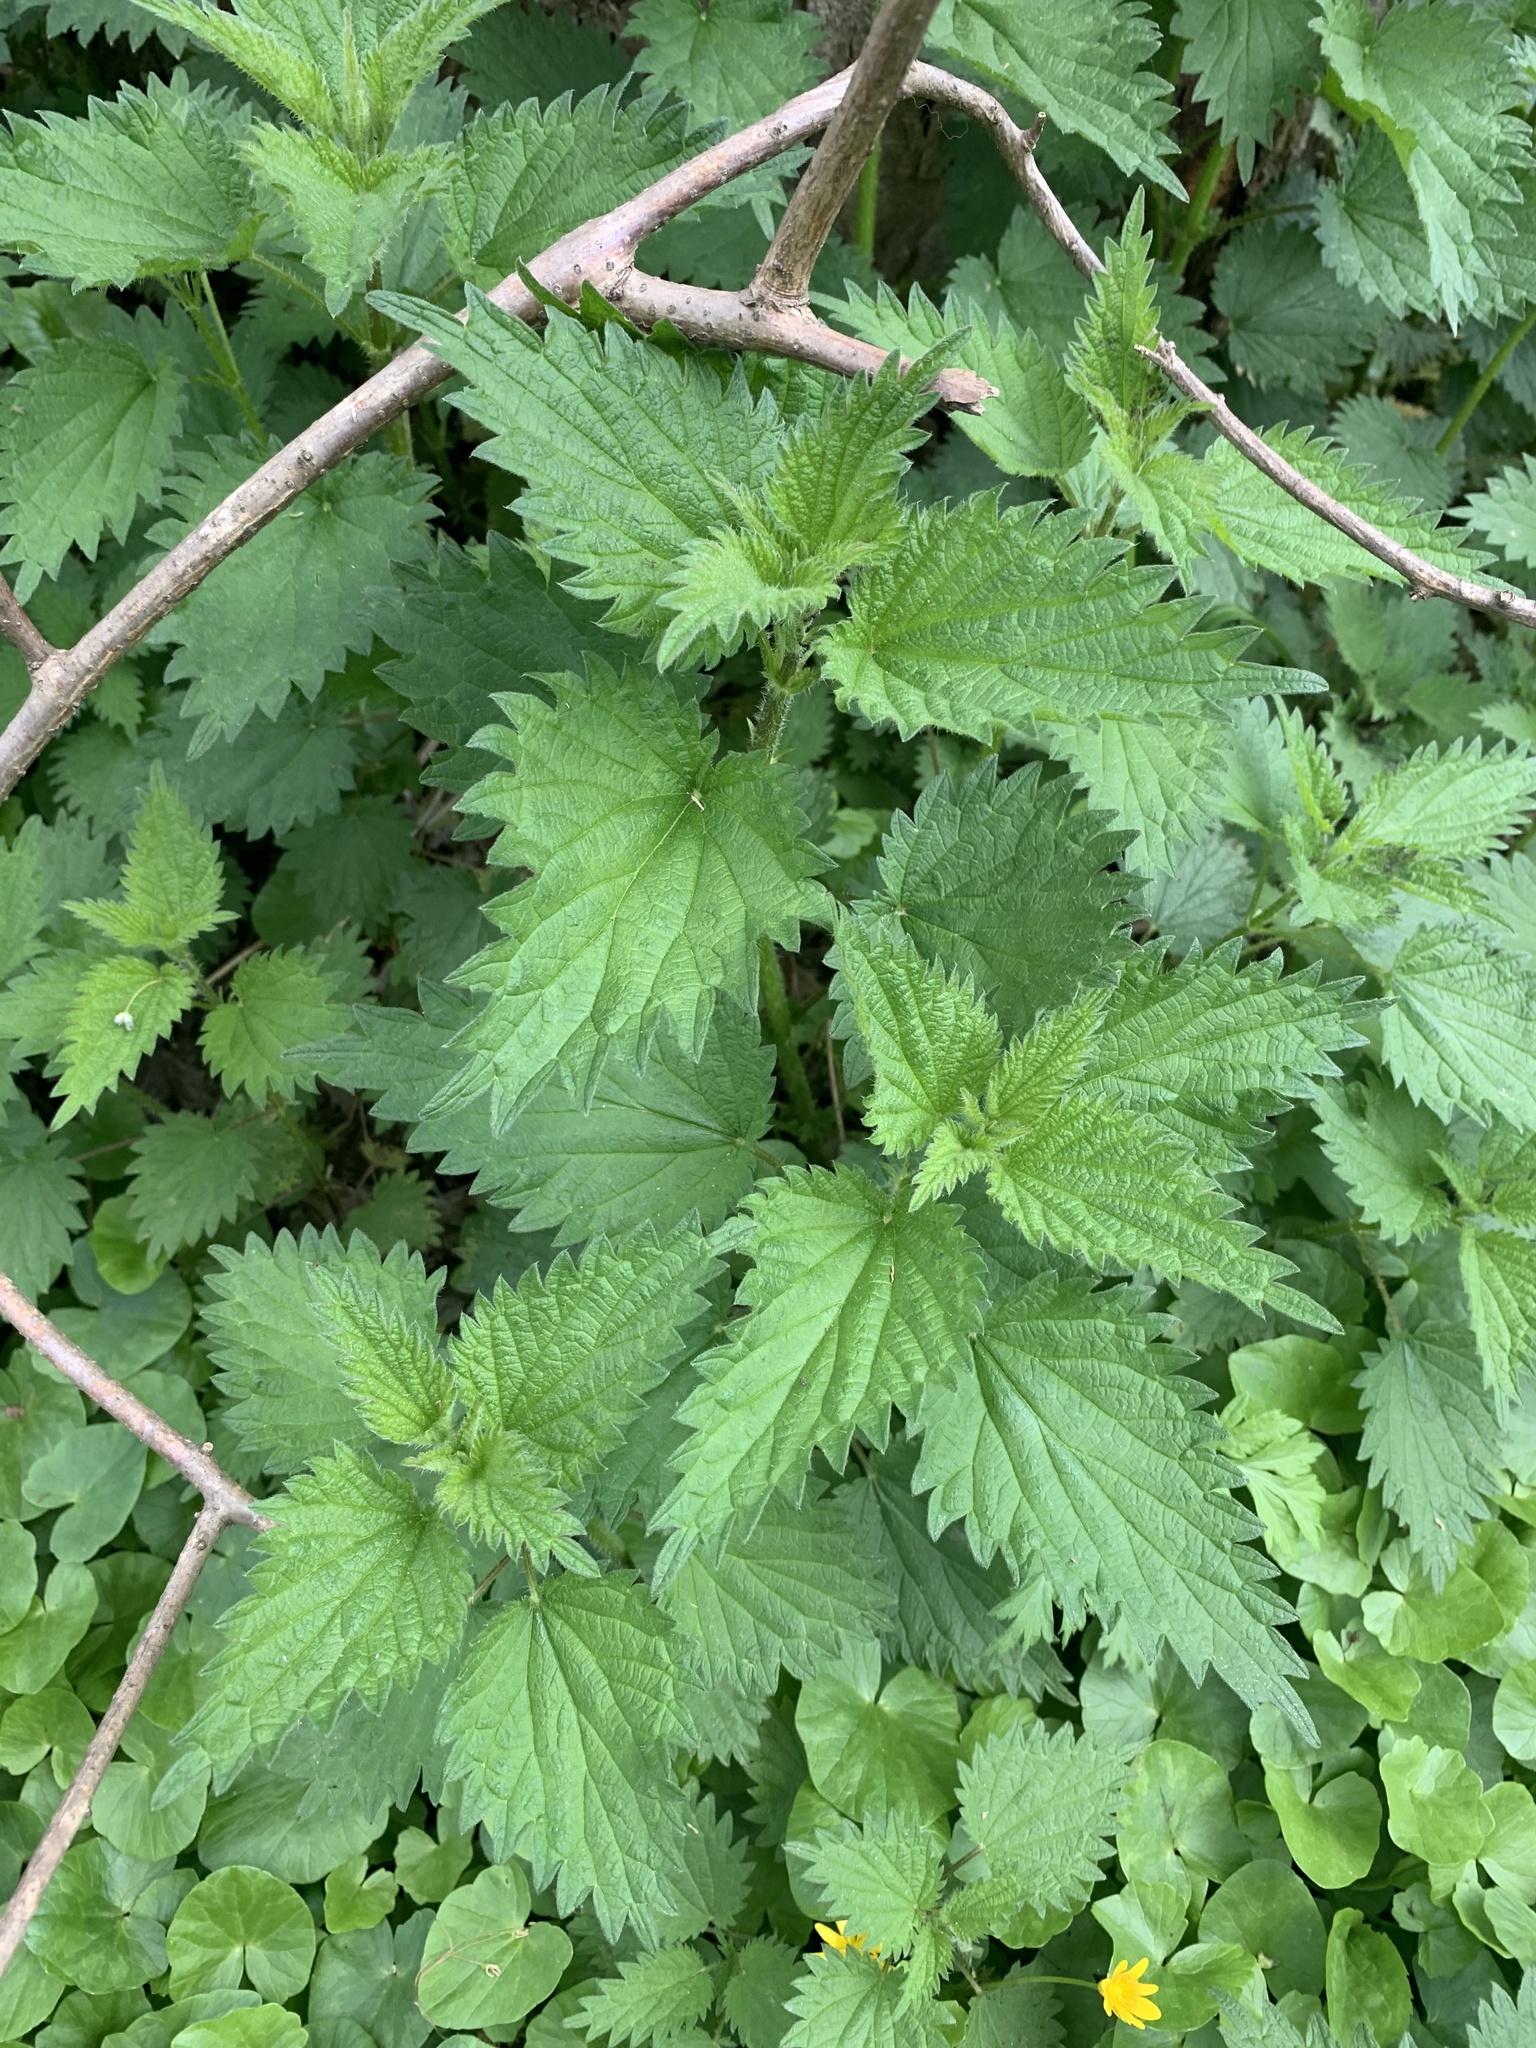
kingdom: Plantae
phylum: Tracheophyta
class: Magnoliopsida
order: Rosales
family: Urticaceae
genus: Urtica
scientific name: Urtica dioica
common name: Common nettle
